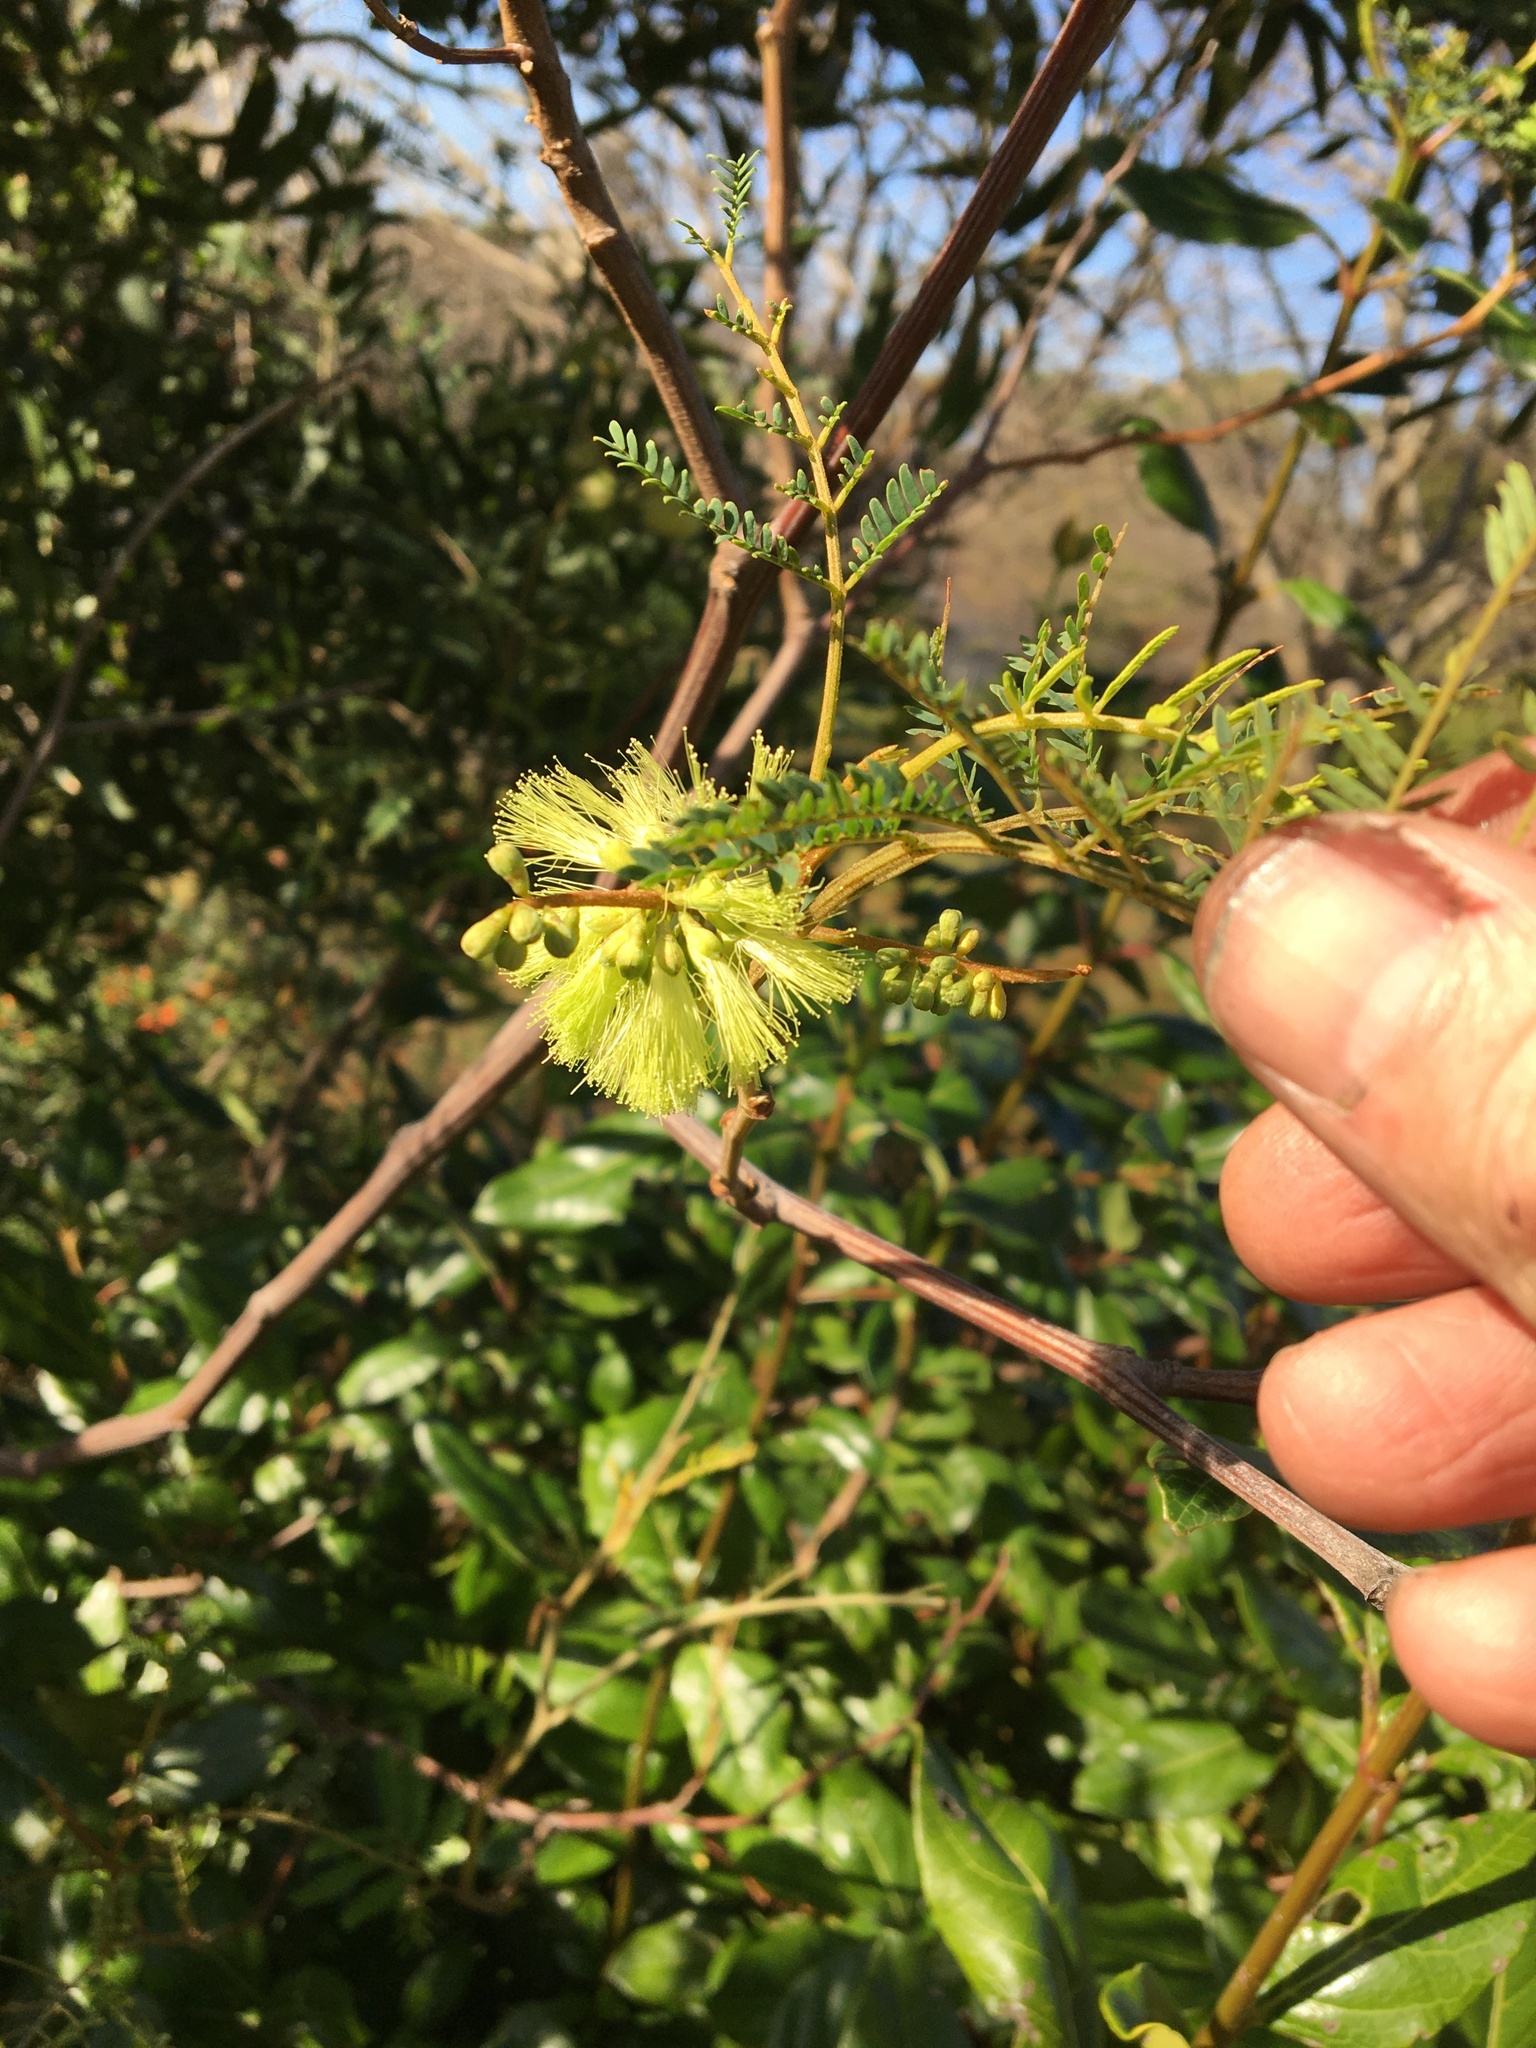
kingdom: Plantae
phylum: Tracheophyta
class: Magnoliopsida
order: Fabales
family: Fabaceae
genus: Paraserianthes
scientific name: Paraserianthes lophantha
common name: Plume albizia
